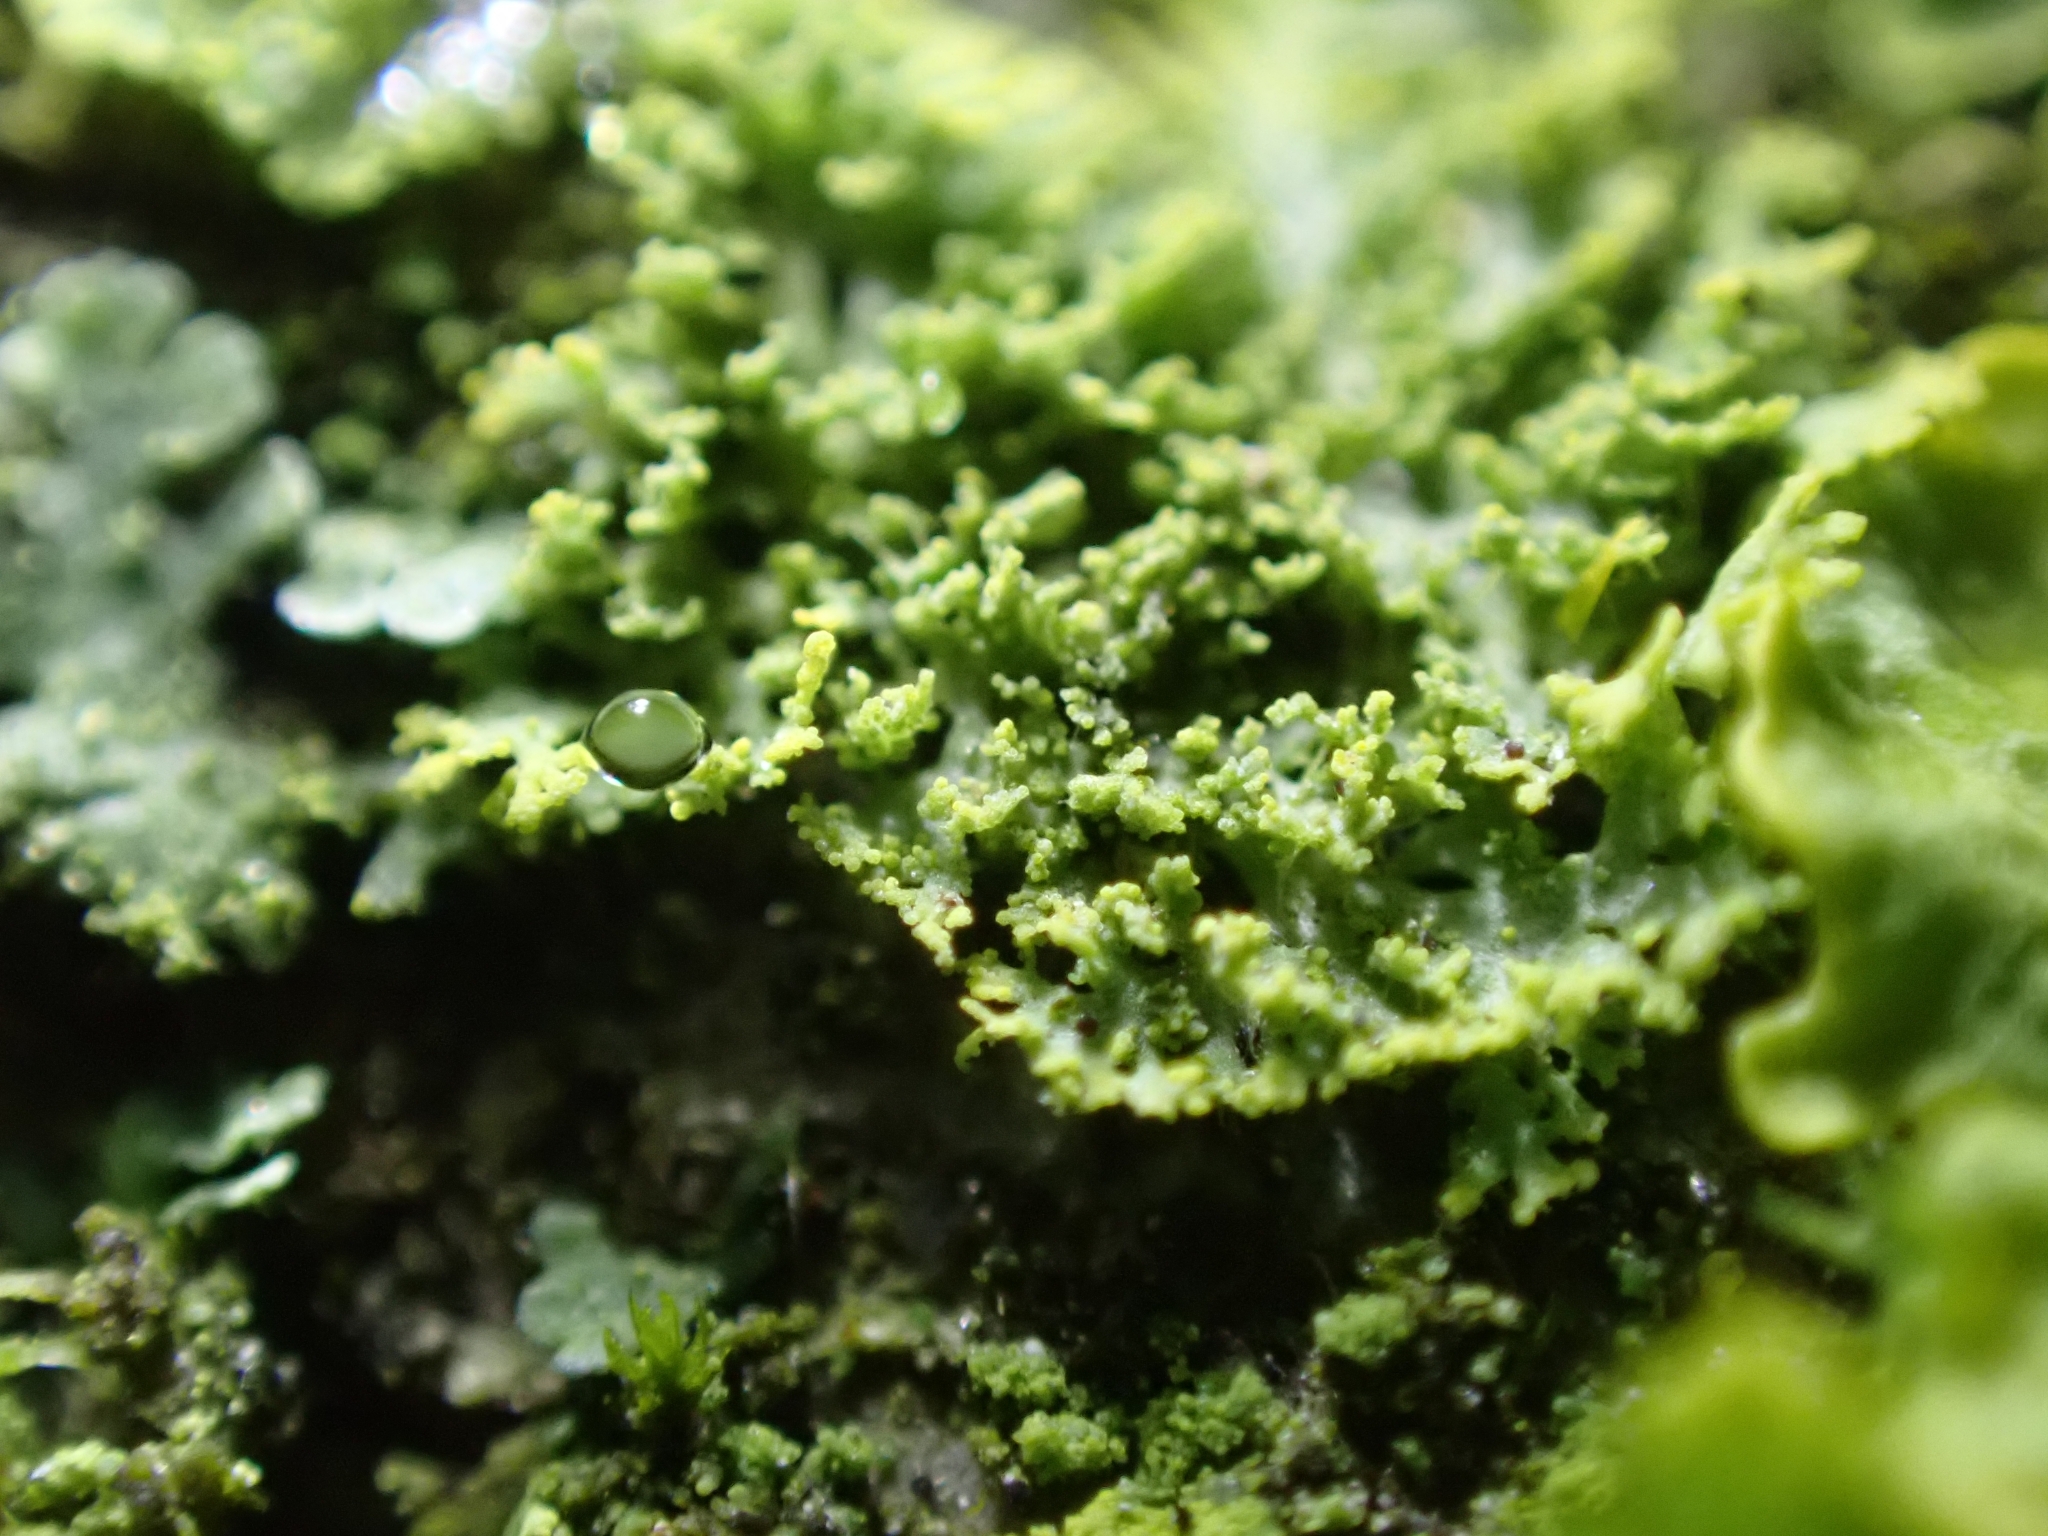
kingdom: Fungi
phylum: Ascomycota
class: Candelariomycetes
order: Candelariales
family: Candelariaceae
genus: Candelaria
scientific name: Candelaria concolor
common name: Candleflame lichen
